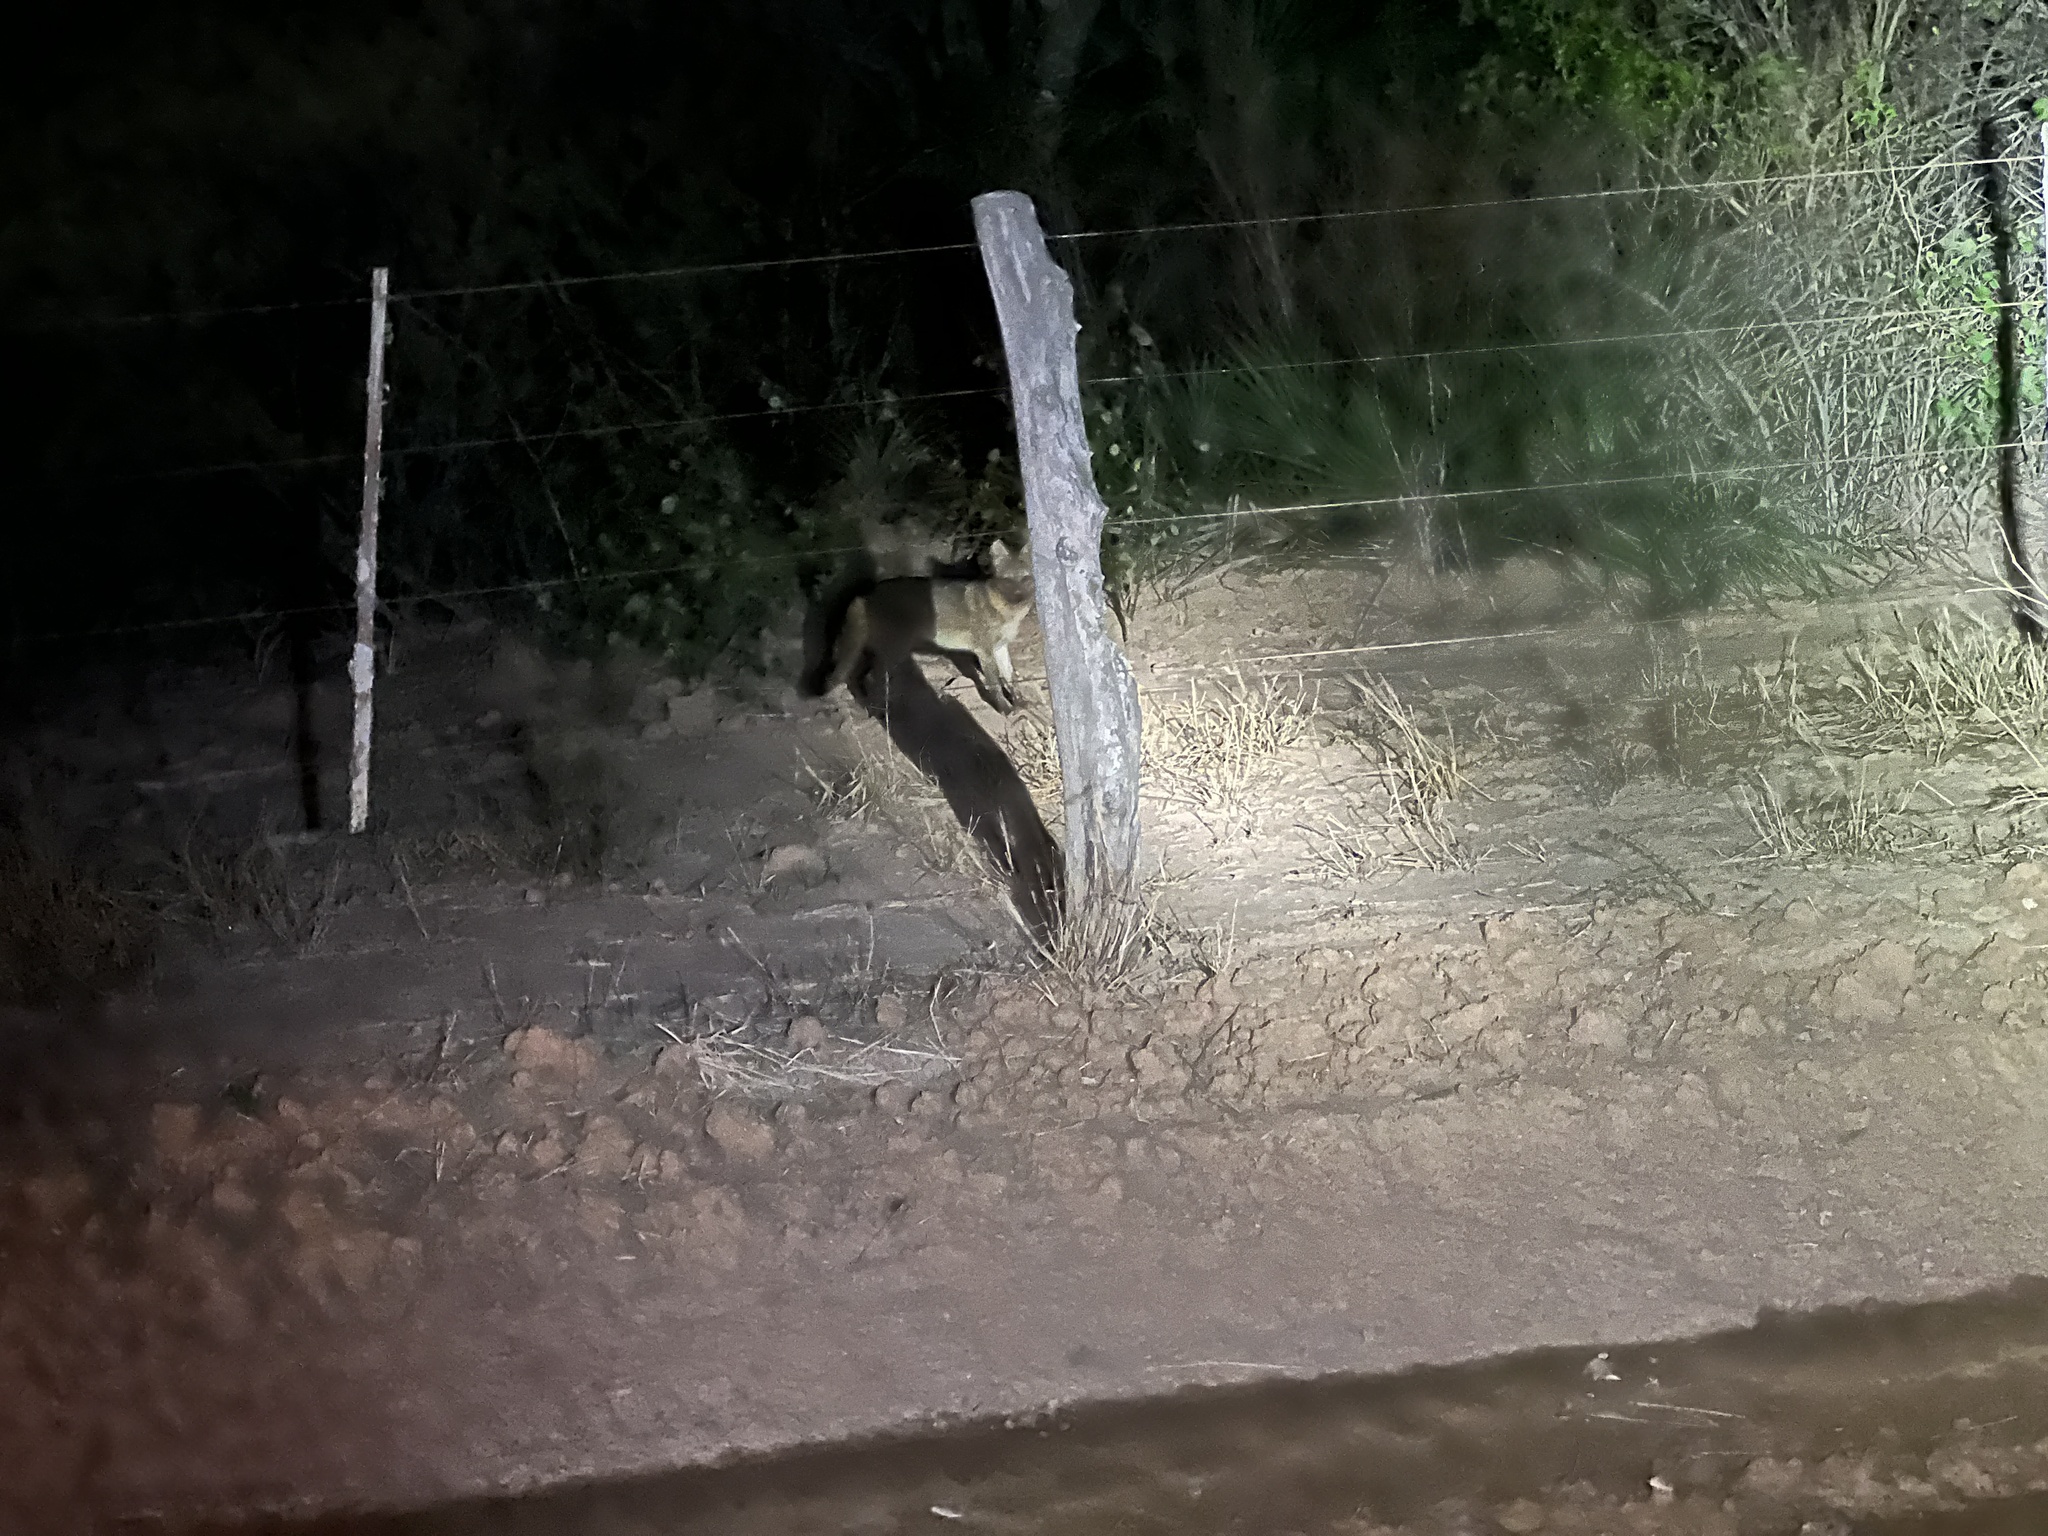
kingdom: Animalia
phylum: Chordata
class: Mammalia
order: Carnivora
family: Canidae
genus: Cerdocyon
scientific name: Cerdocyon thous
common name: Crab-eating fox
